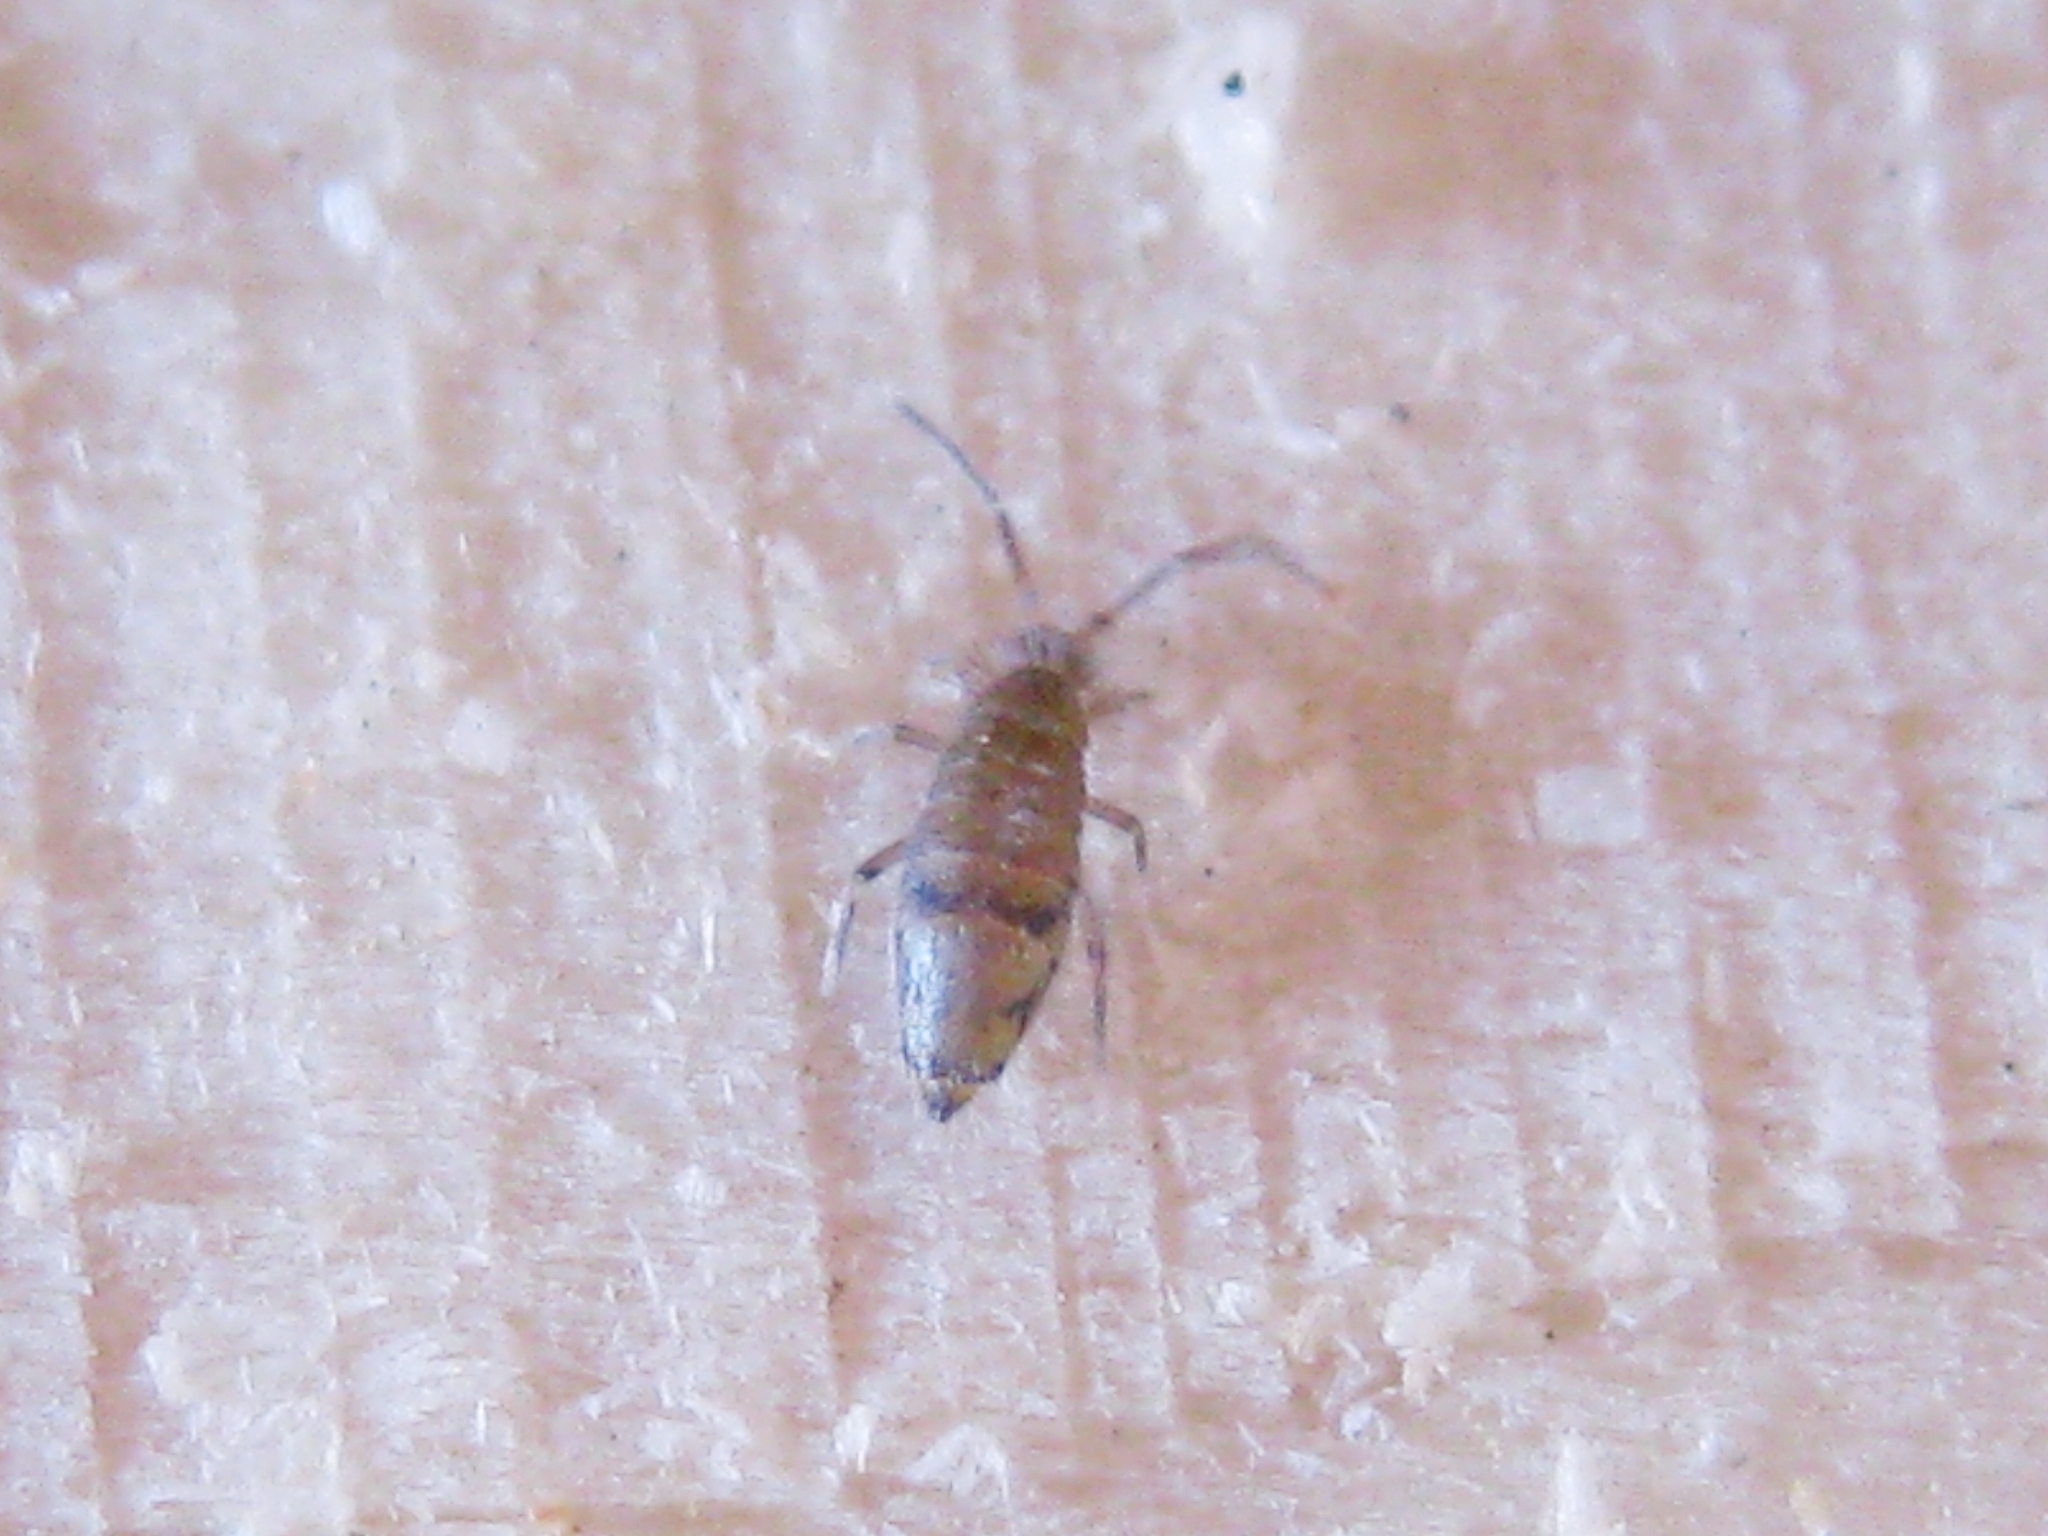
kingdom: Animalia
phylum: Arthropoda
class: Collembola
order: Entomobryomorpha
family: Entomobryidae
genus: Willowsia
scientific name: Willowsia nigromaculata
